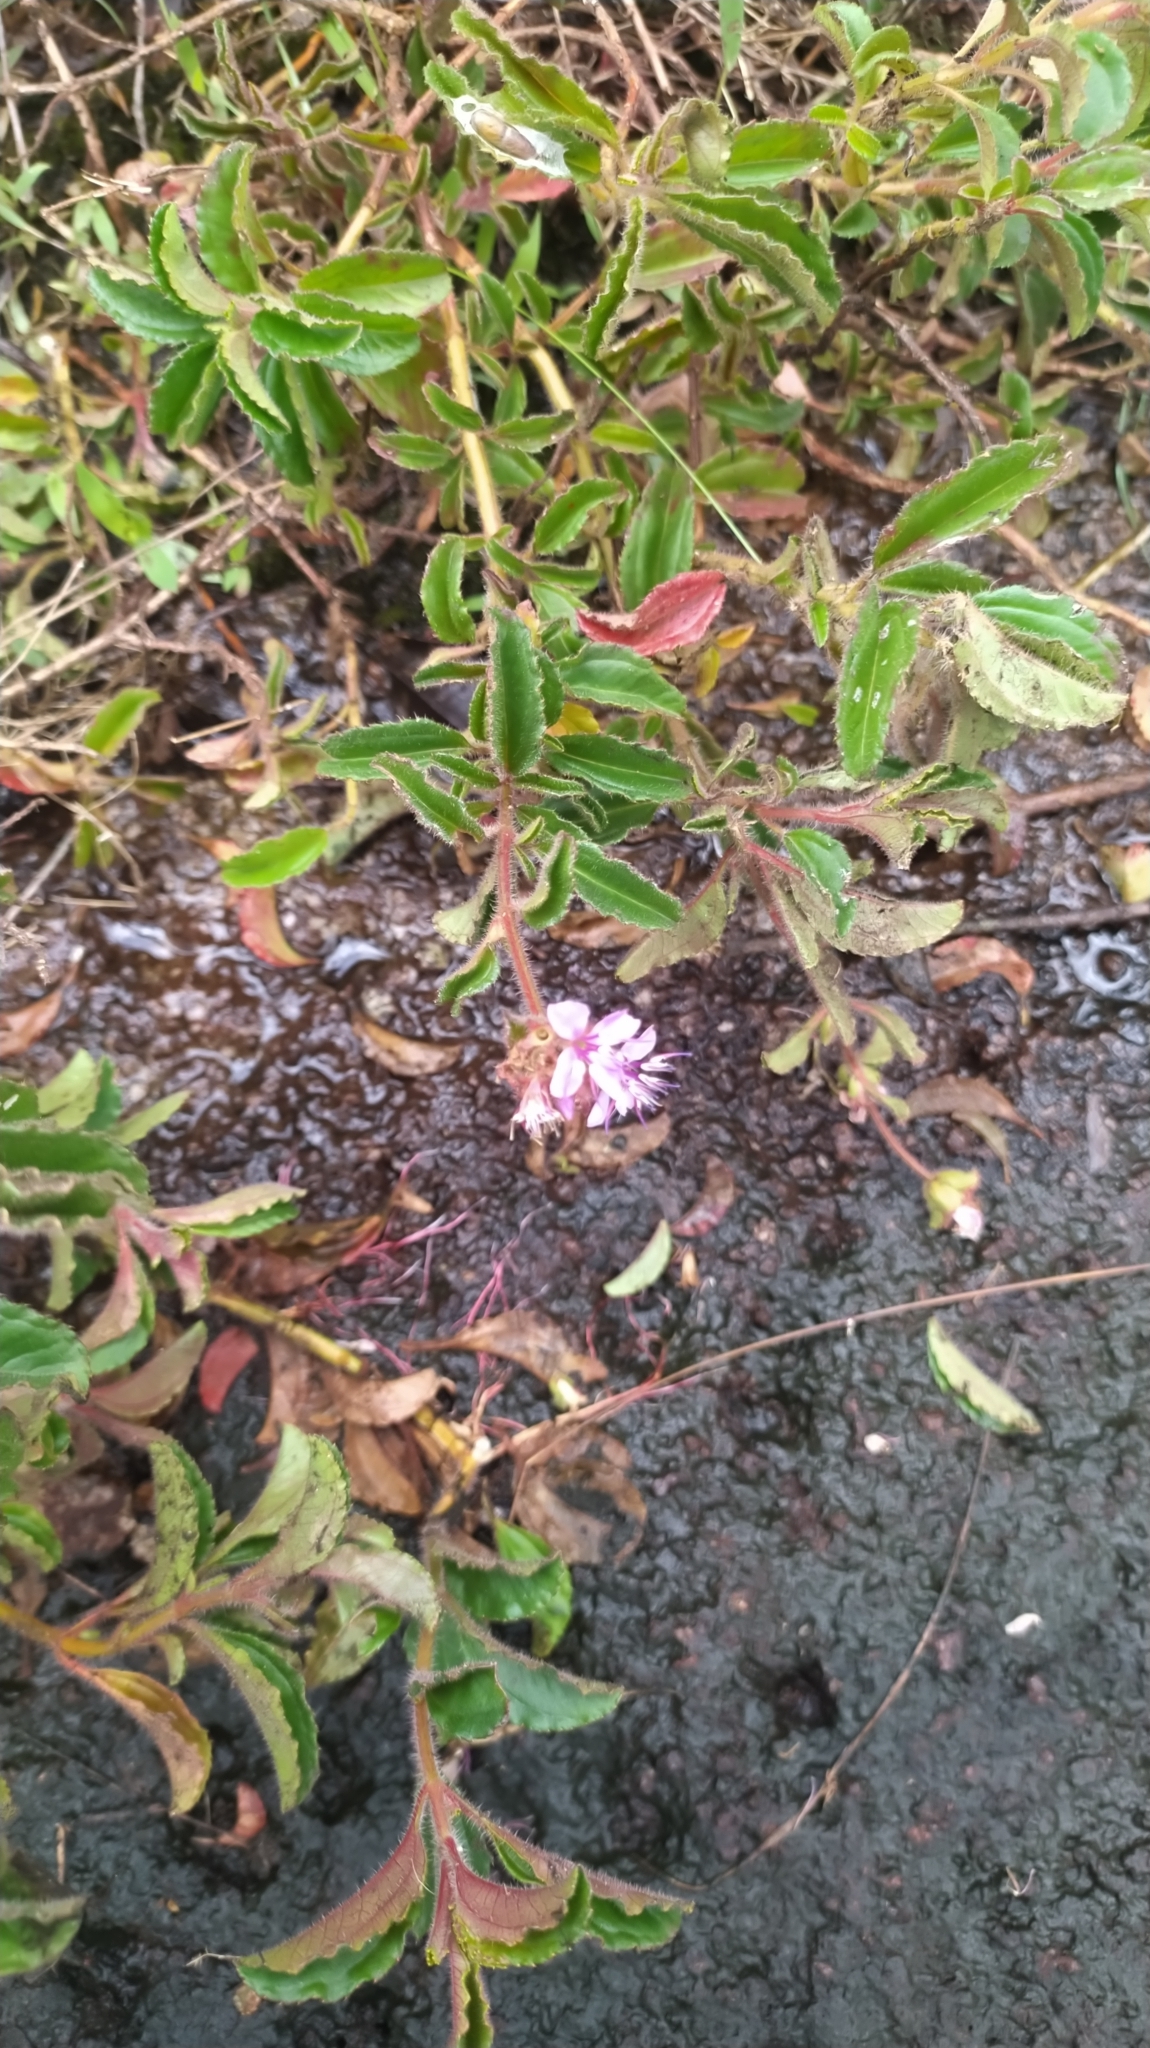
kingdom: Plantae
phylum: Tracheophyta
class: Magnoliopsida
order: Myrtales
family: Melastomataceae
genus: Ernestia
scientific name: Ernestia confertiflora
